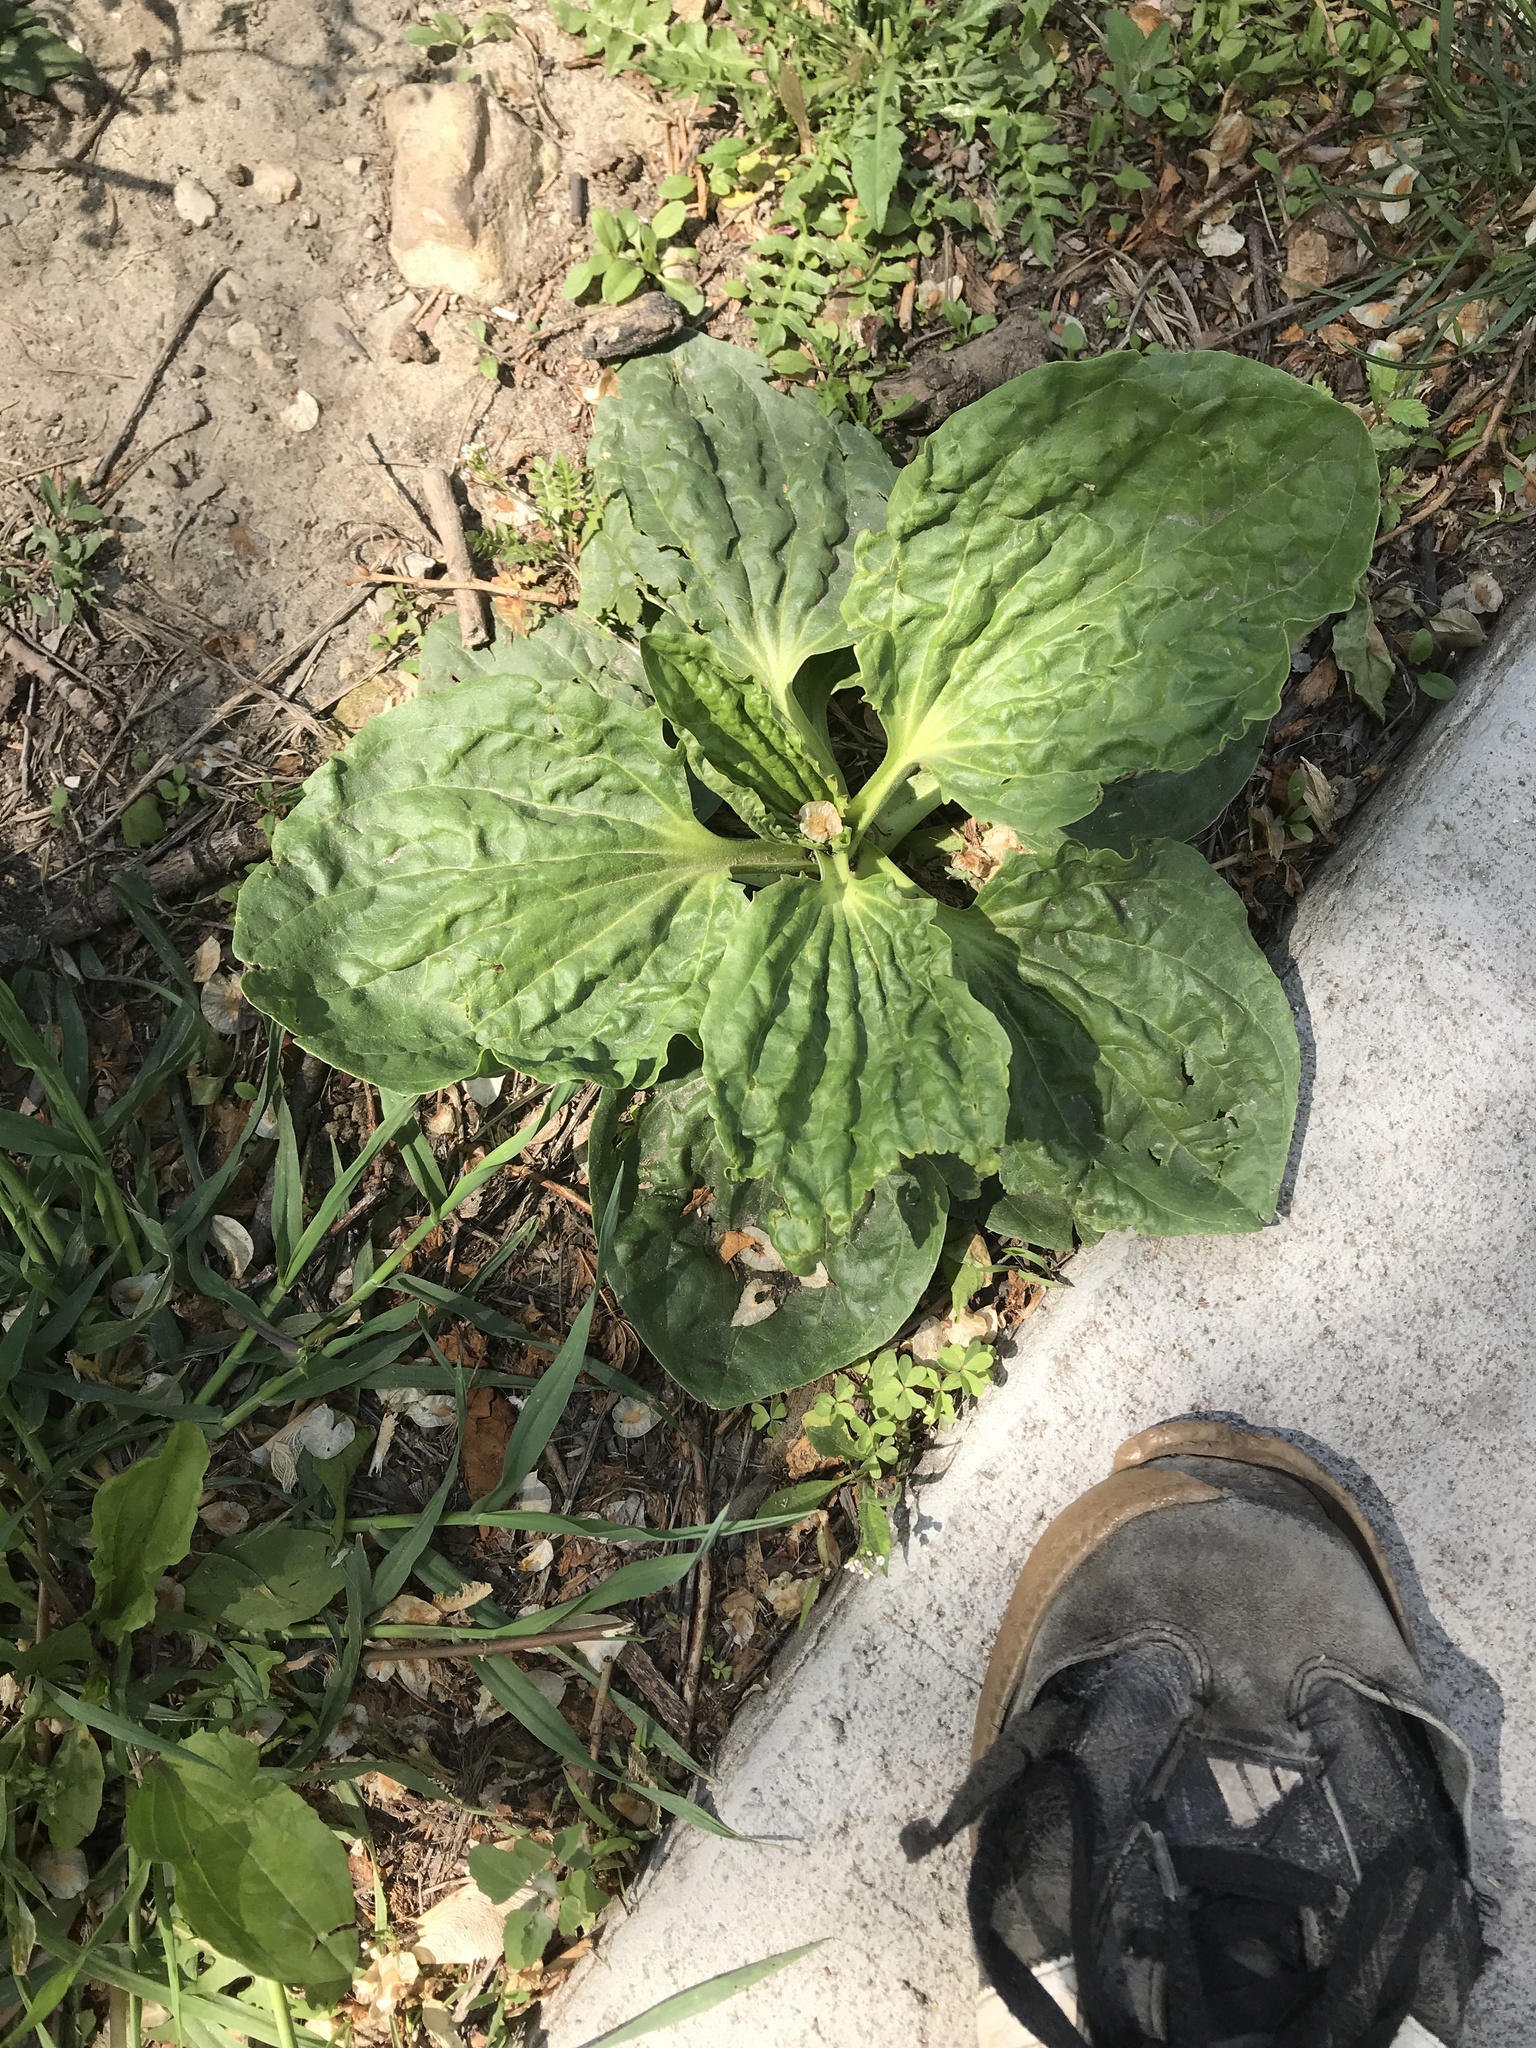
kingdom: Plantae
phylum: Tracheophyta
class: Magnoliopsida
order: Lamiales
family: Plantaginaceae
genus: Plantago
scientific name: Plantago major
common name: Common plantain
